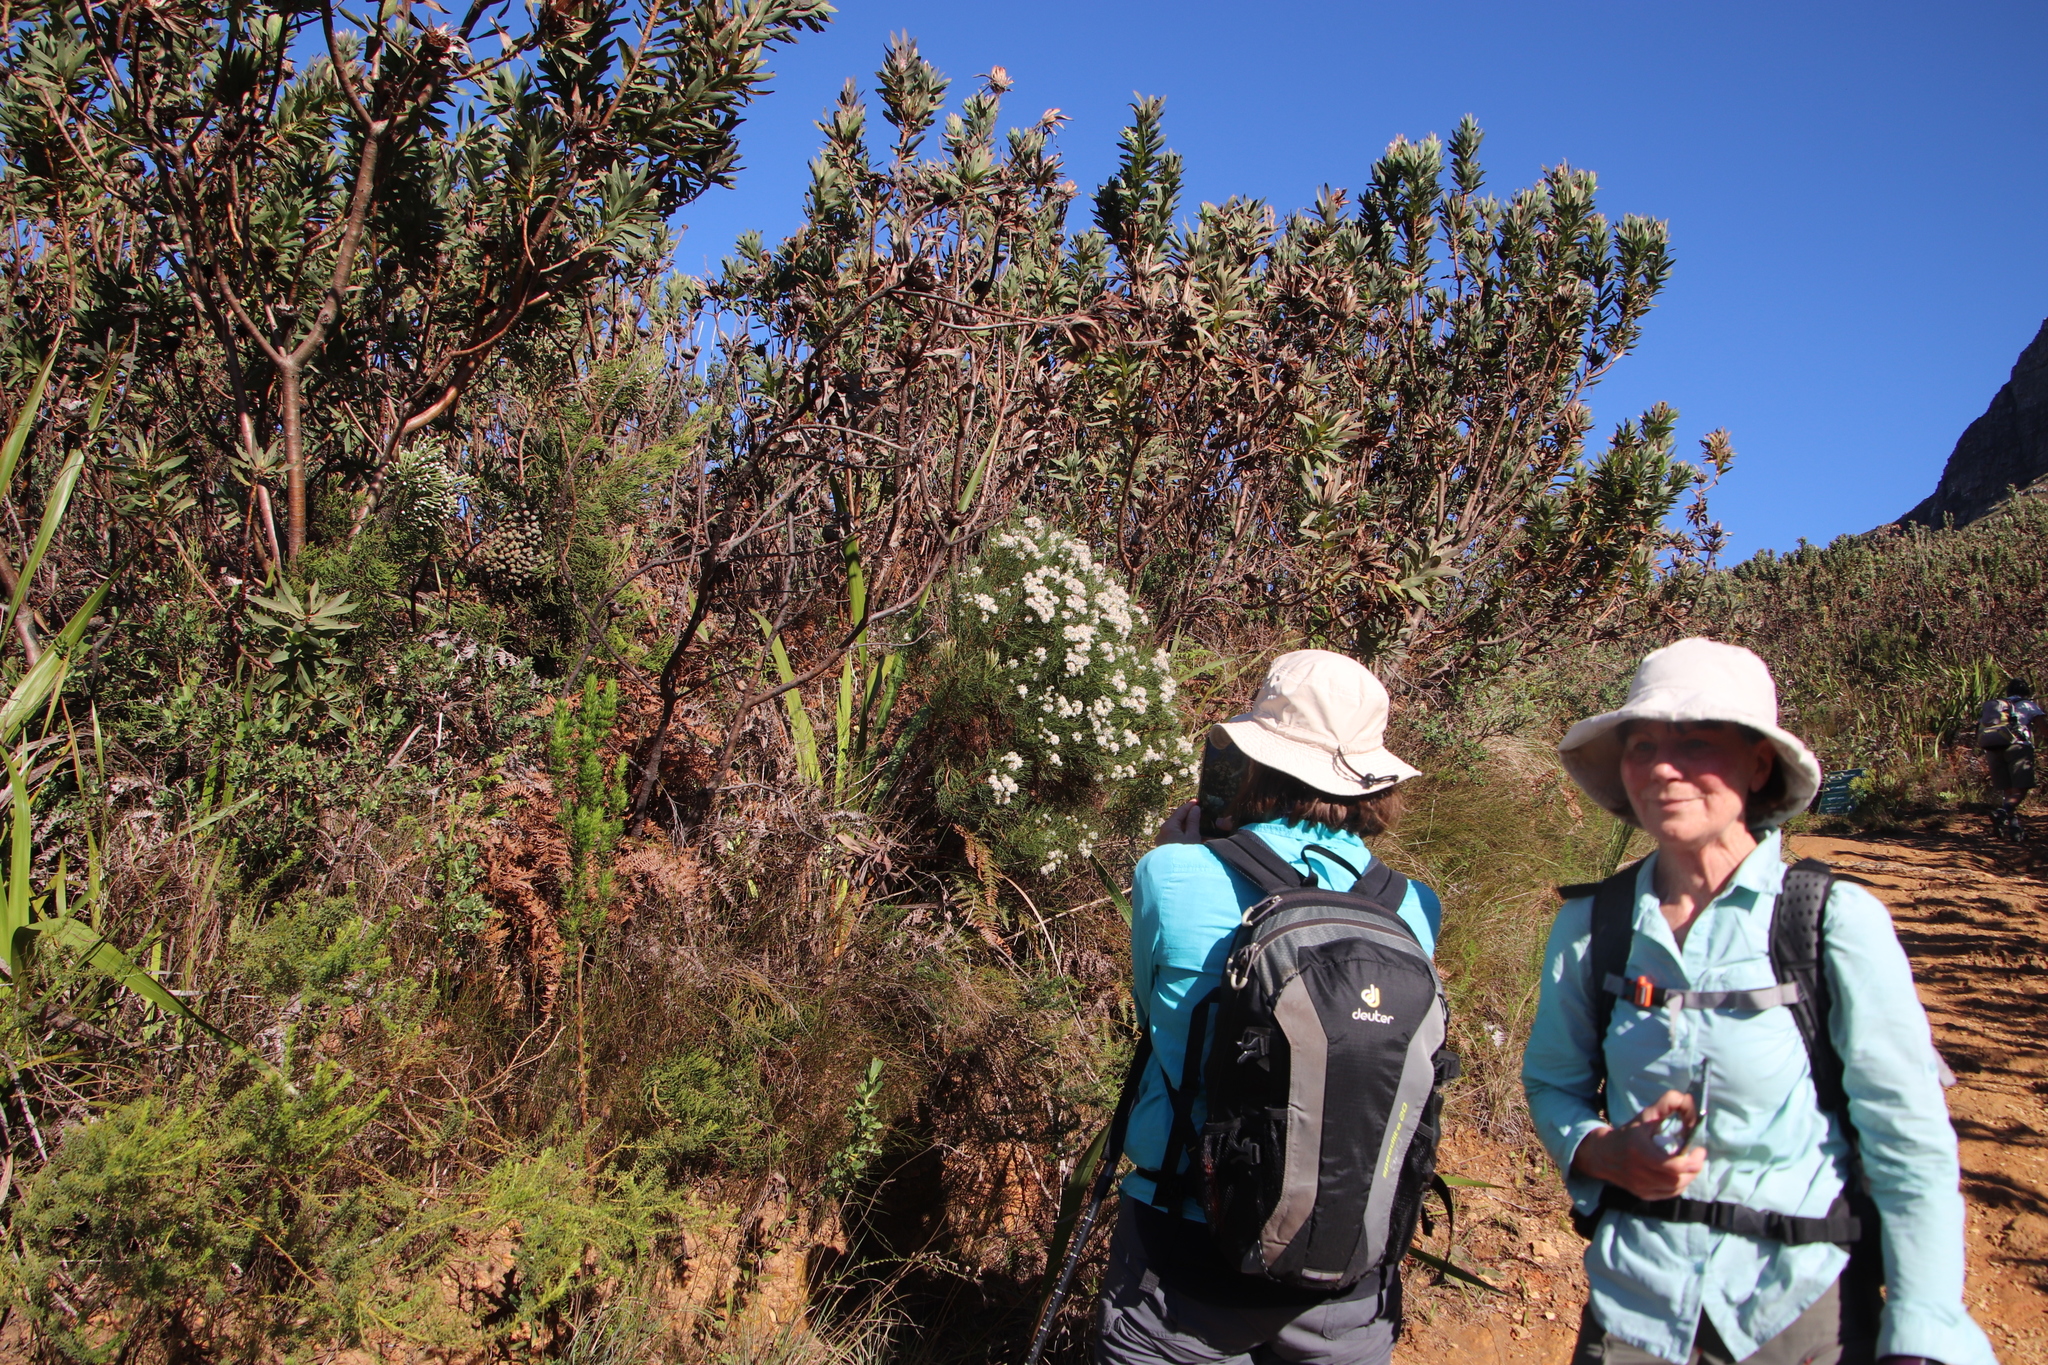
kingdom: Plantae
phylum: Tracheophyta
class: Magnoliopsida
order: Proteales
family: Proteaceae
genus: Serruria
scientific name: Serruria kraussii
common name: Snowball spiderhead
